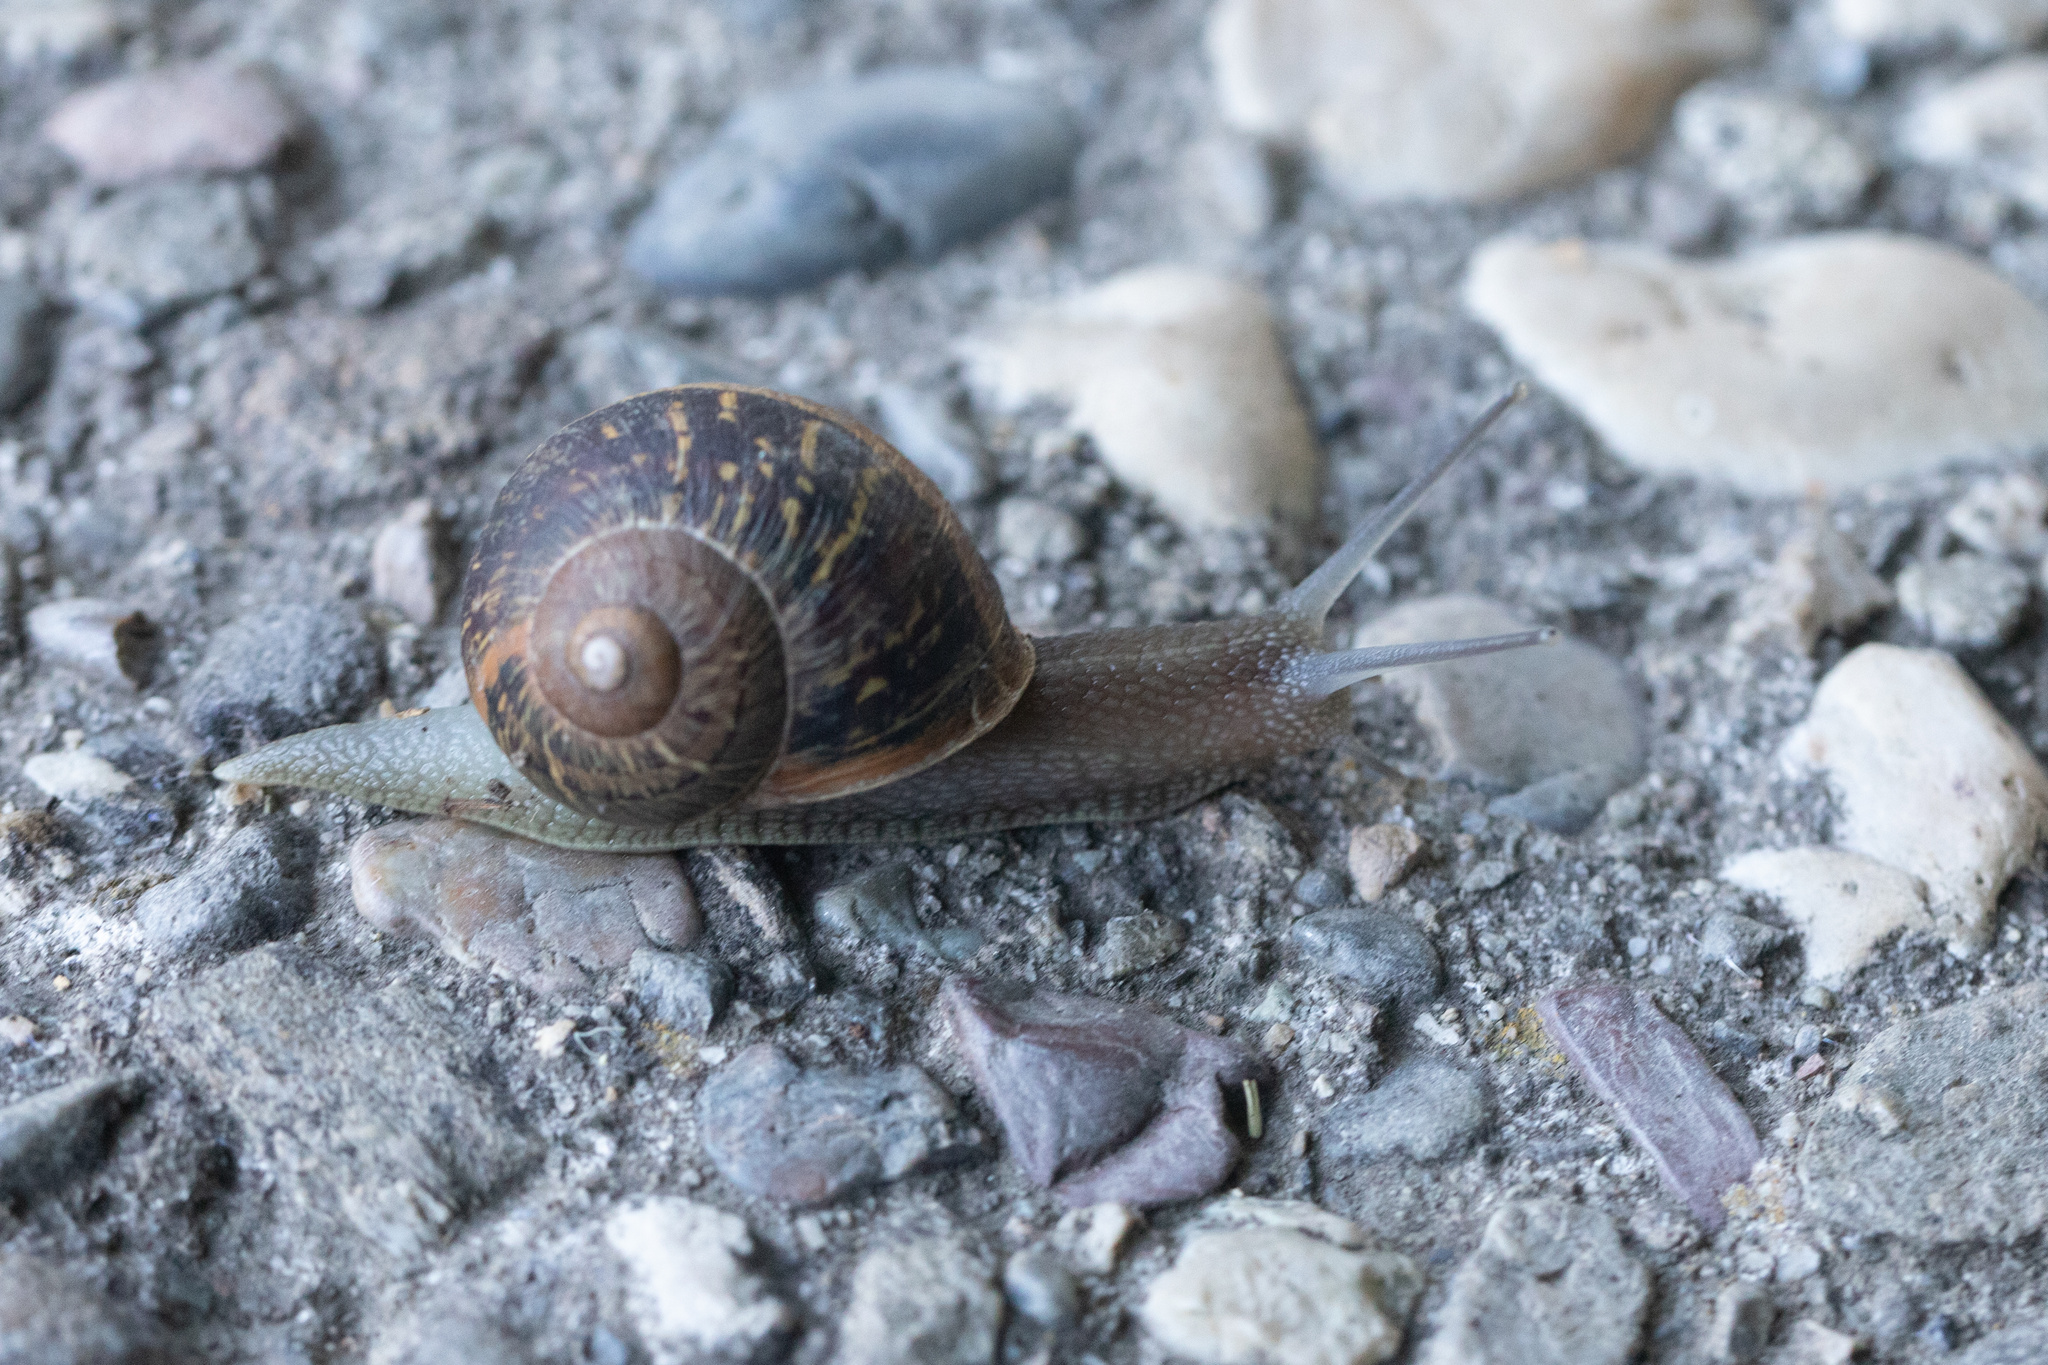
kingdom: Animalia
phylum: Mollusca
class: Gastropoda
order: Stylommatophora
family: Helicidae
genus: Cornu
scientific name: Cornu aspersum
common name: Brown garden snail
